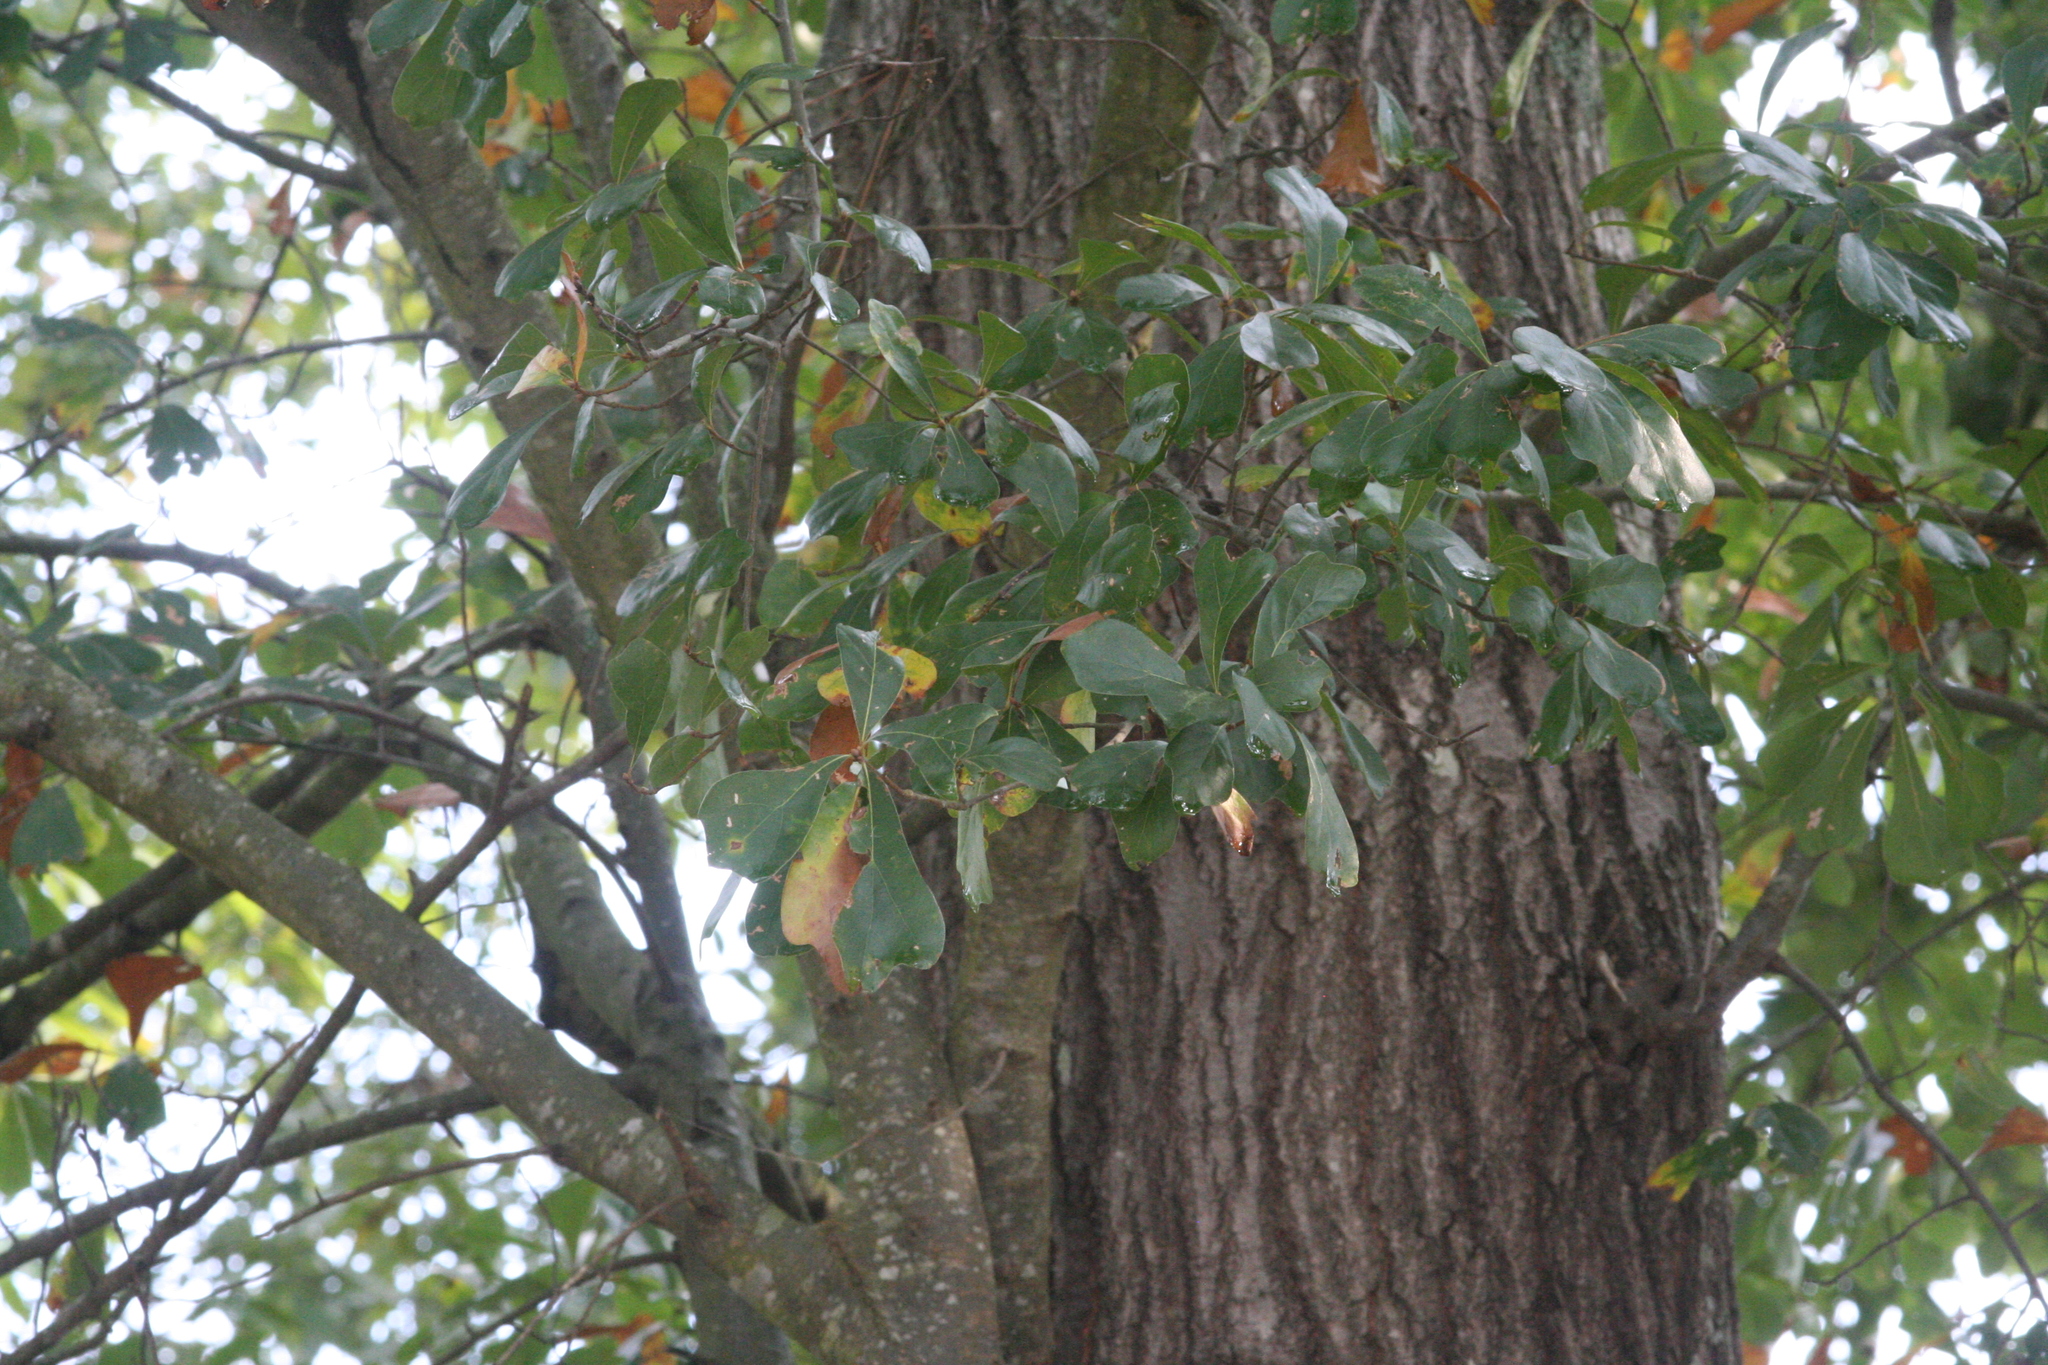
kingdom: Plantae
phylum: Tracheophyta
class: Magnoliopsida
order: Fagales
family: Fagaceae
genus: Quercus
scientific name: Quercus nigra
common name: Water oak
